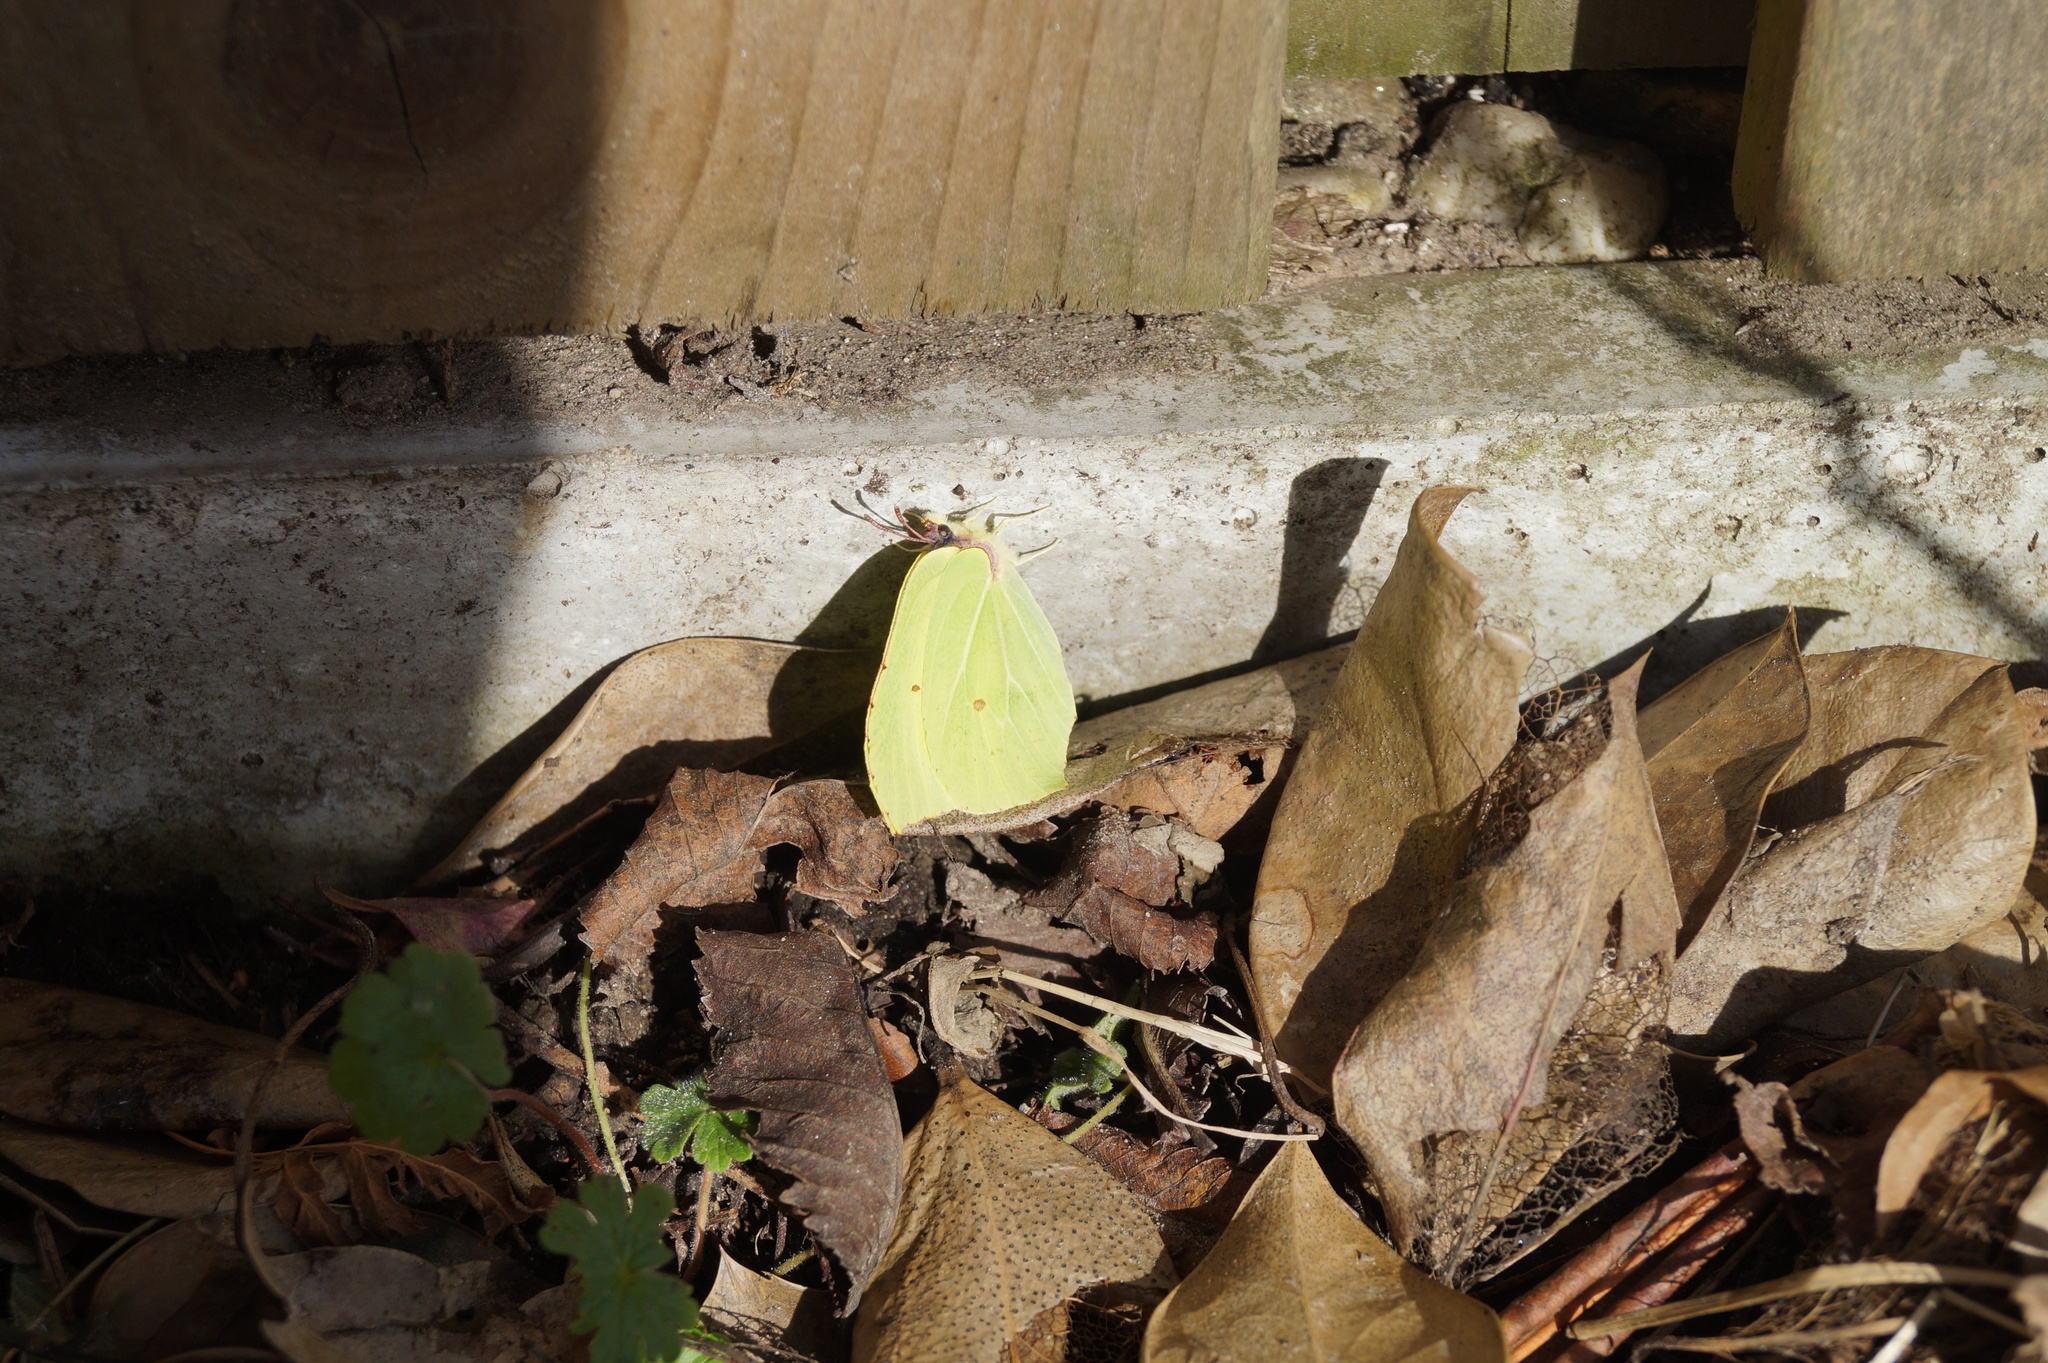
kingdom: Animalia
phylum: Arthropoda
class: Insecta
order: Lepidoptera
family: Pieridae
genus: Gonepteryx
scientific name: Gonepteryx rhamni
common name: Brimstone
